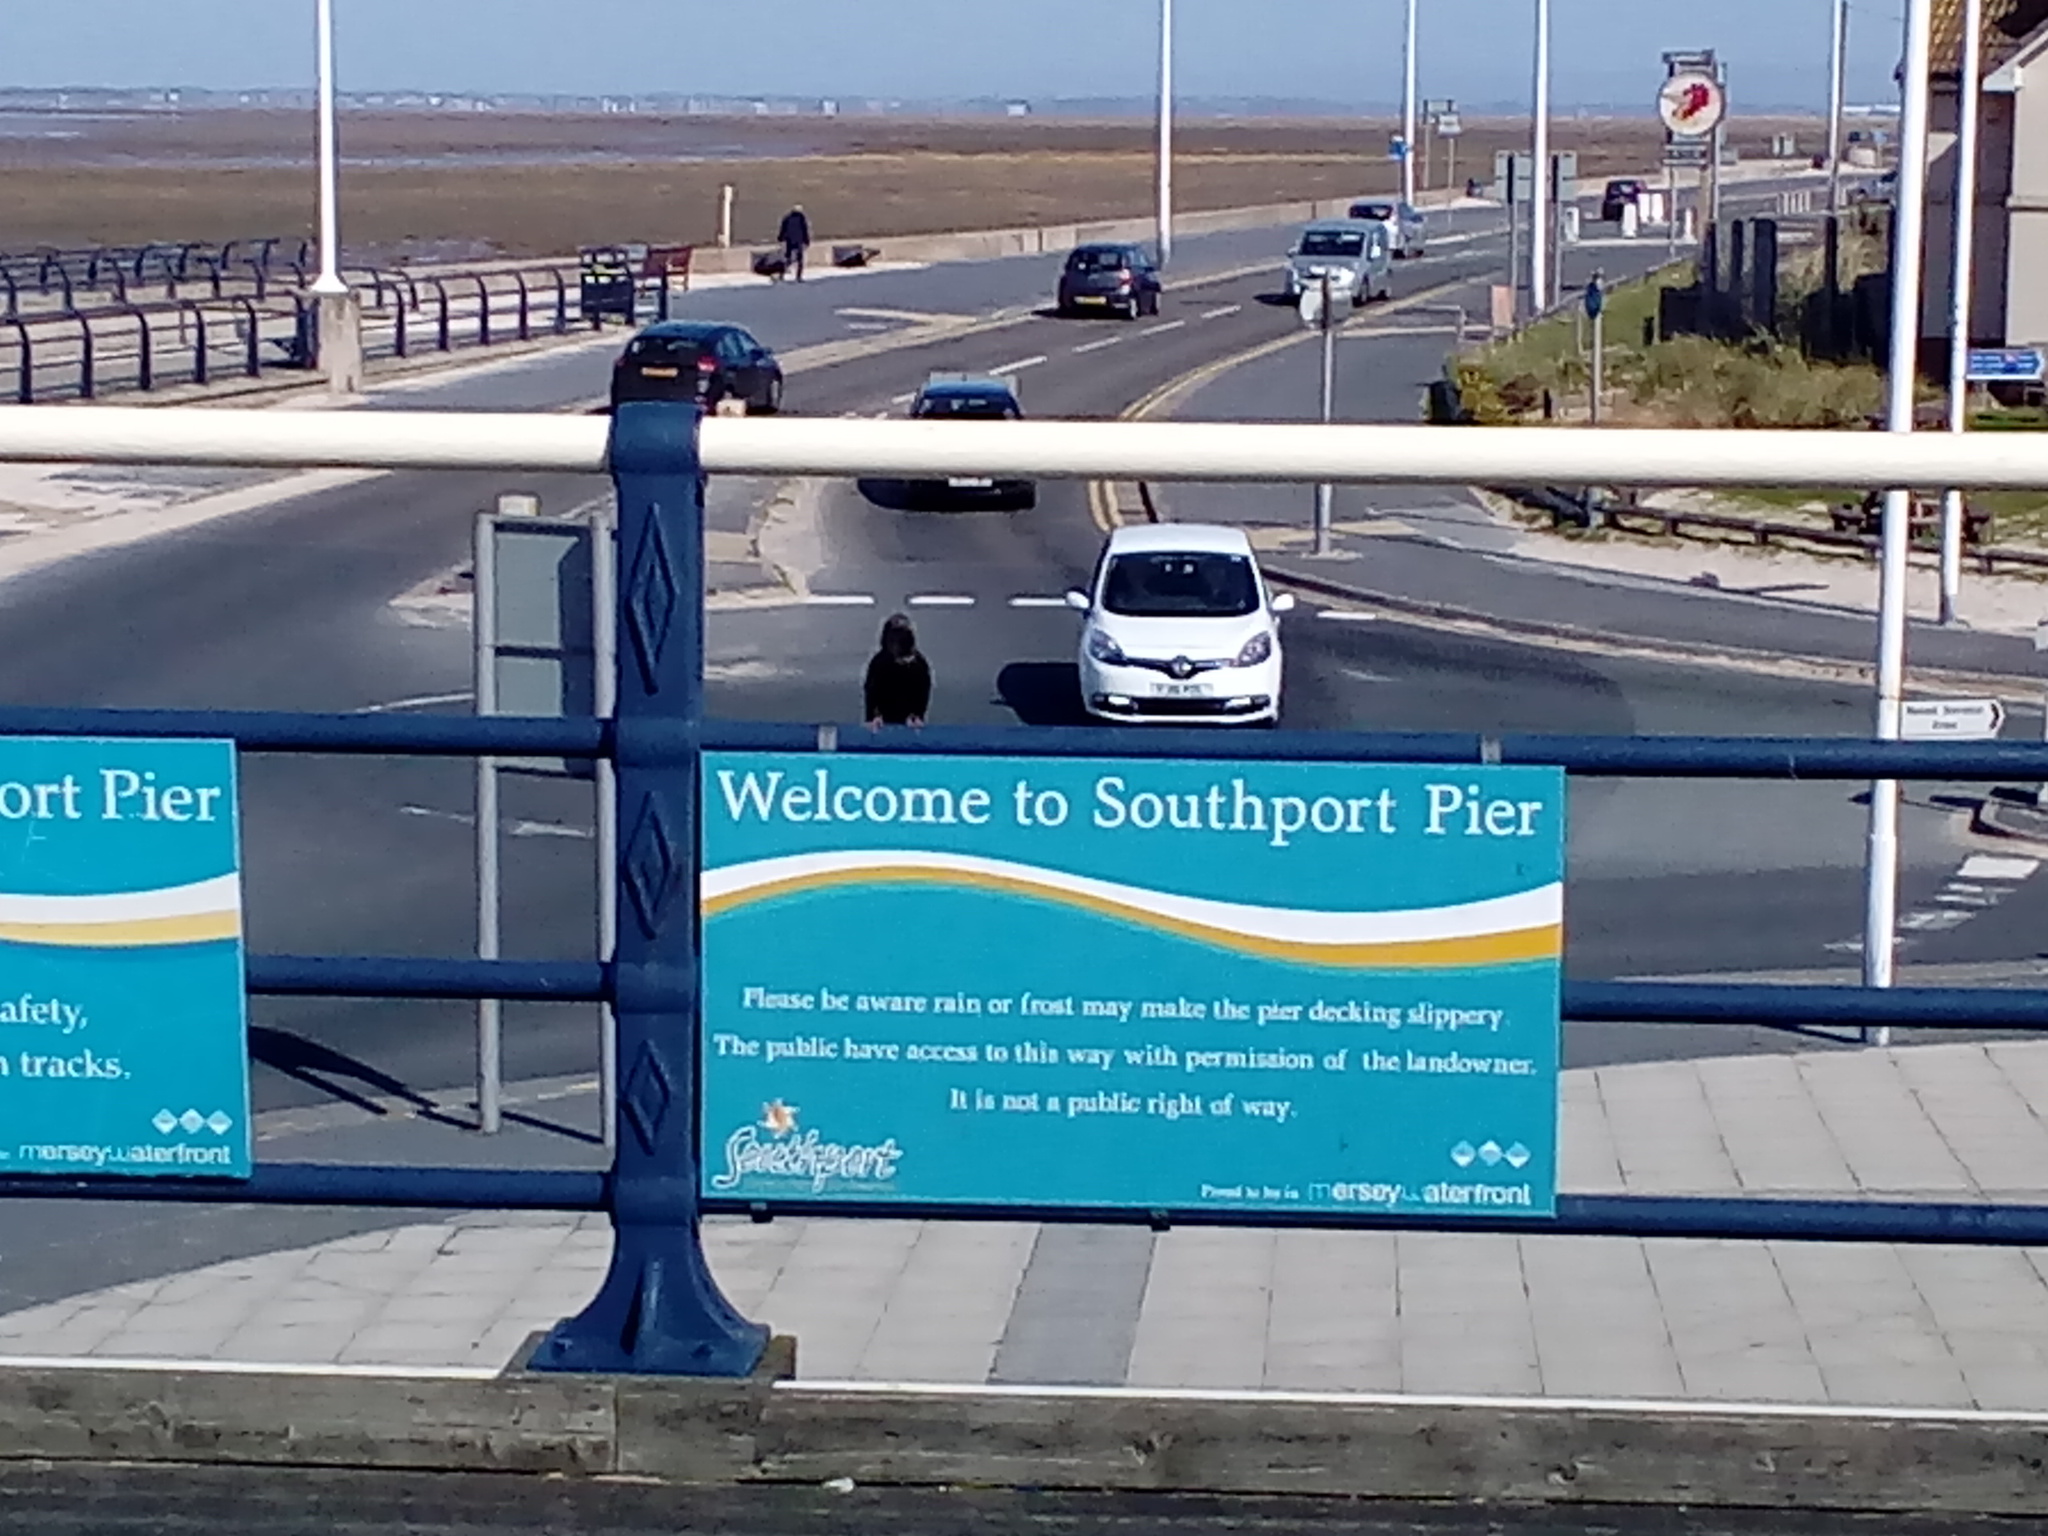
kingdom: Animalia
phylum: Chordata
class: Aves
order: Passeriformes
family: Sturnidae
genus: Sturnus
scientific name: Sturnus vulgaris
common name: Common starling
